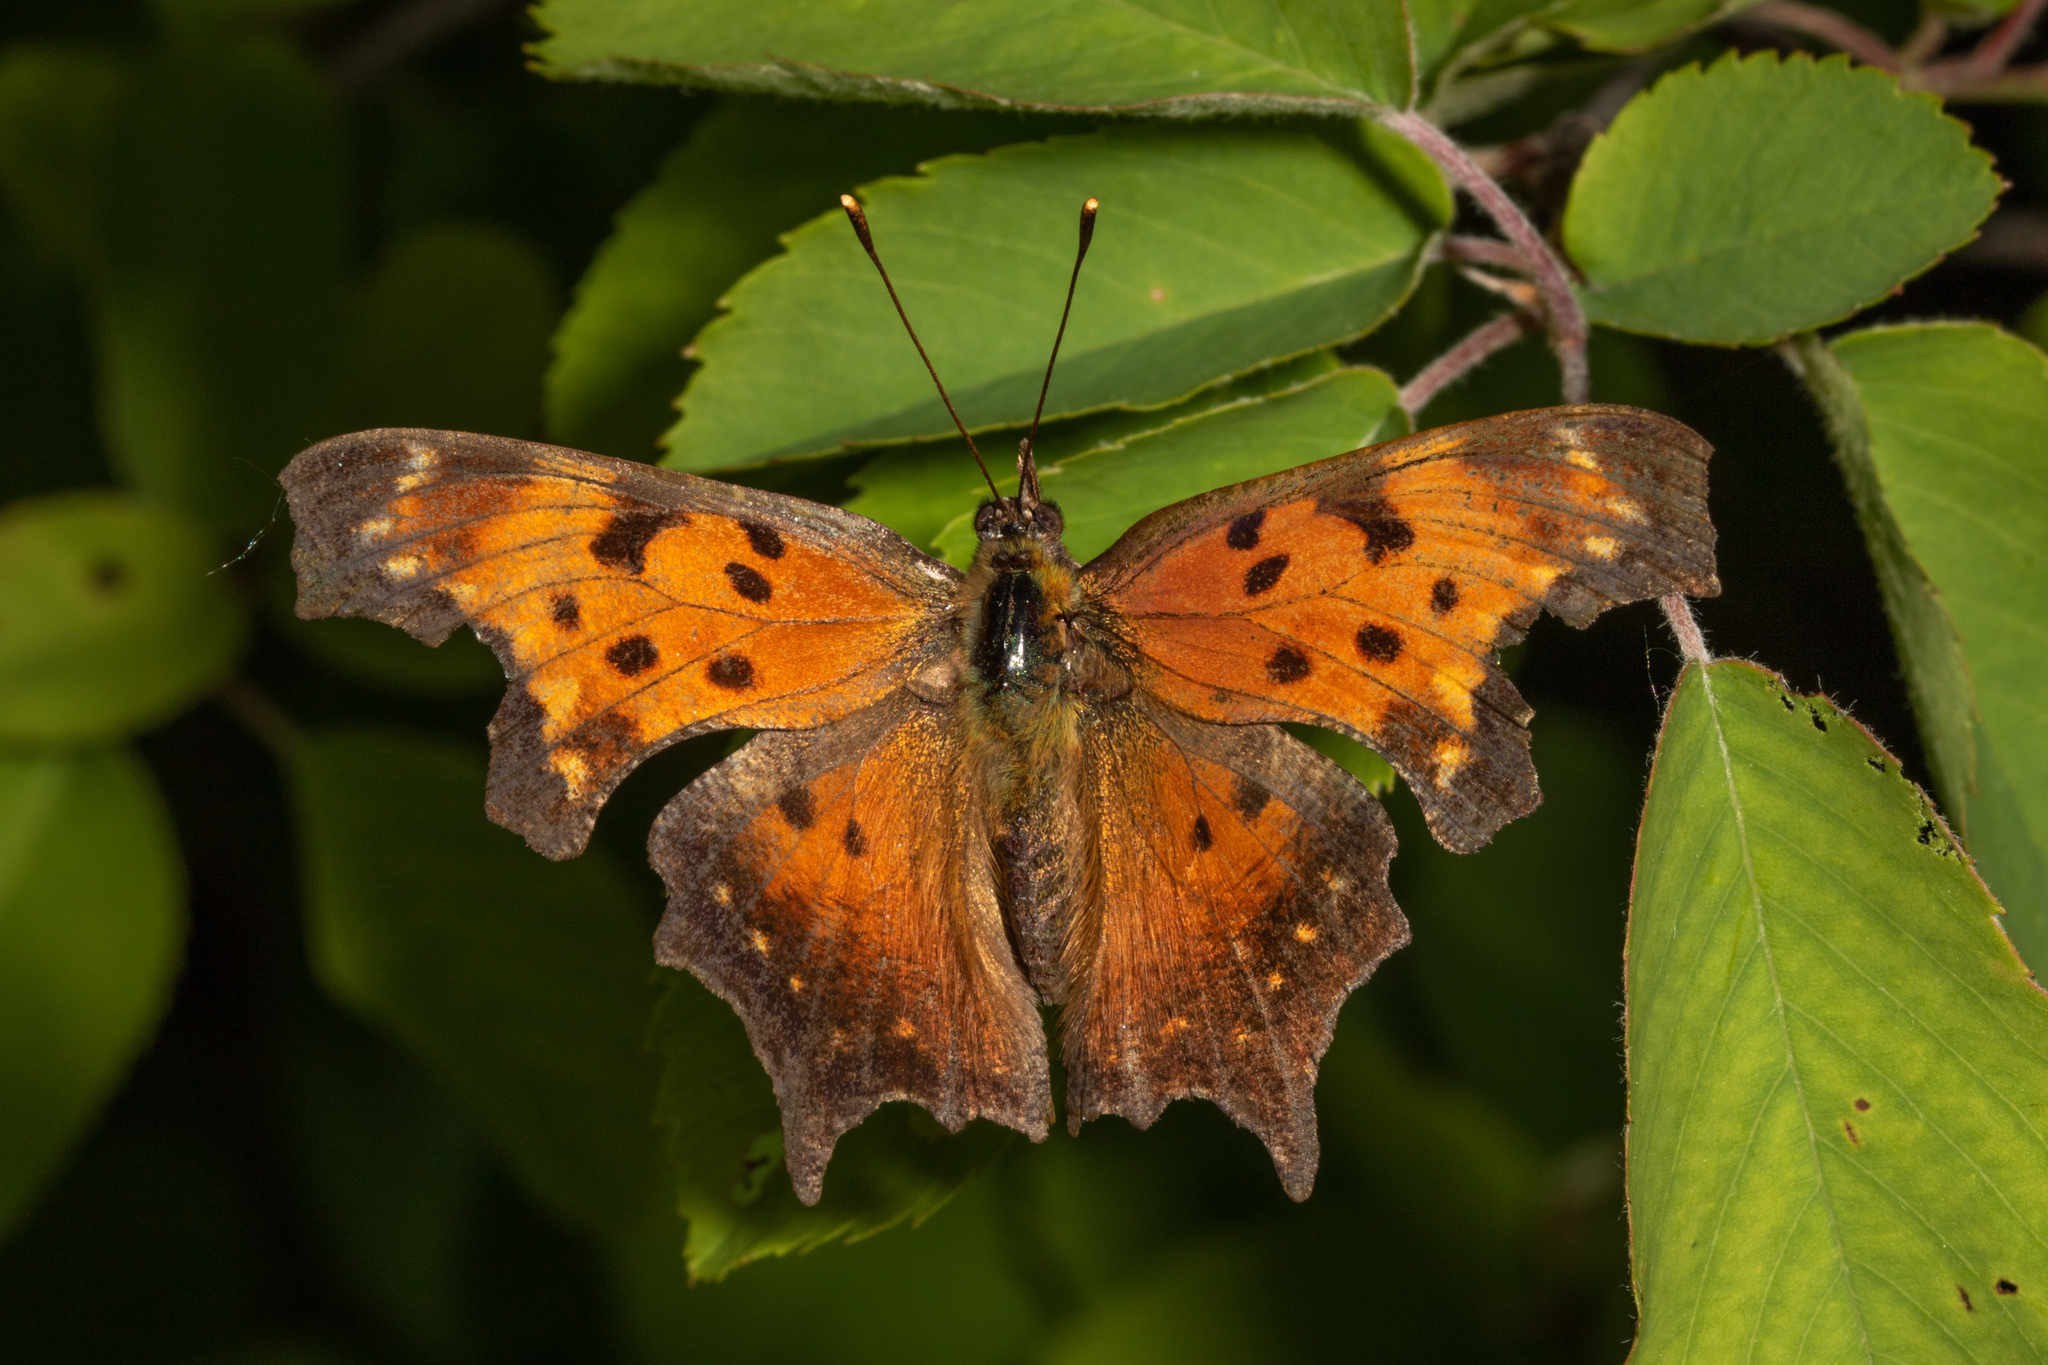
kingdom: Animalia
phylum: Arthropoda
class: Insecta
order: Lepidoptera
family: Nymphalidae
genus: Polygonia
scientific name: Polygonia progne
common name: Gray comma
